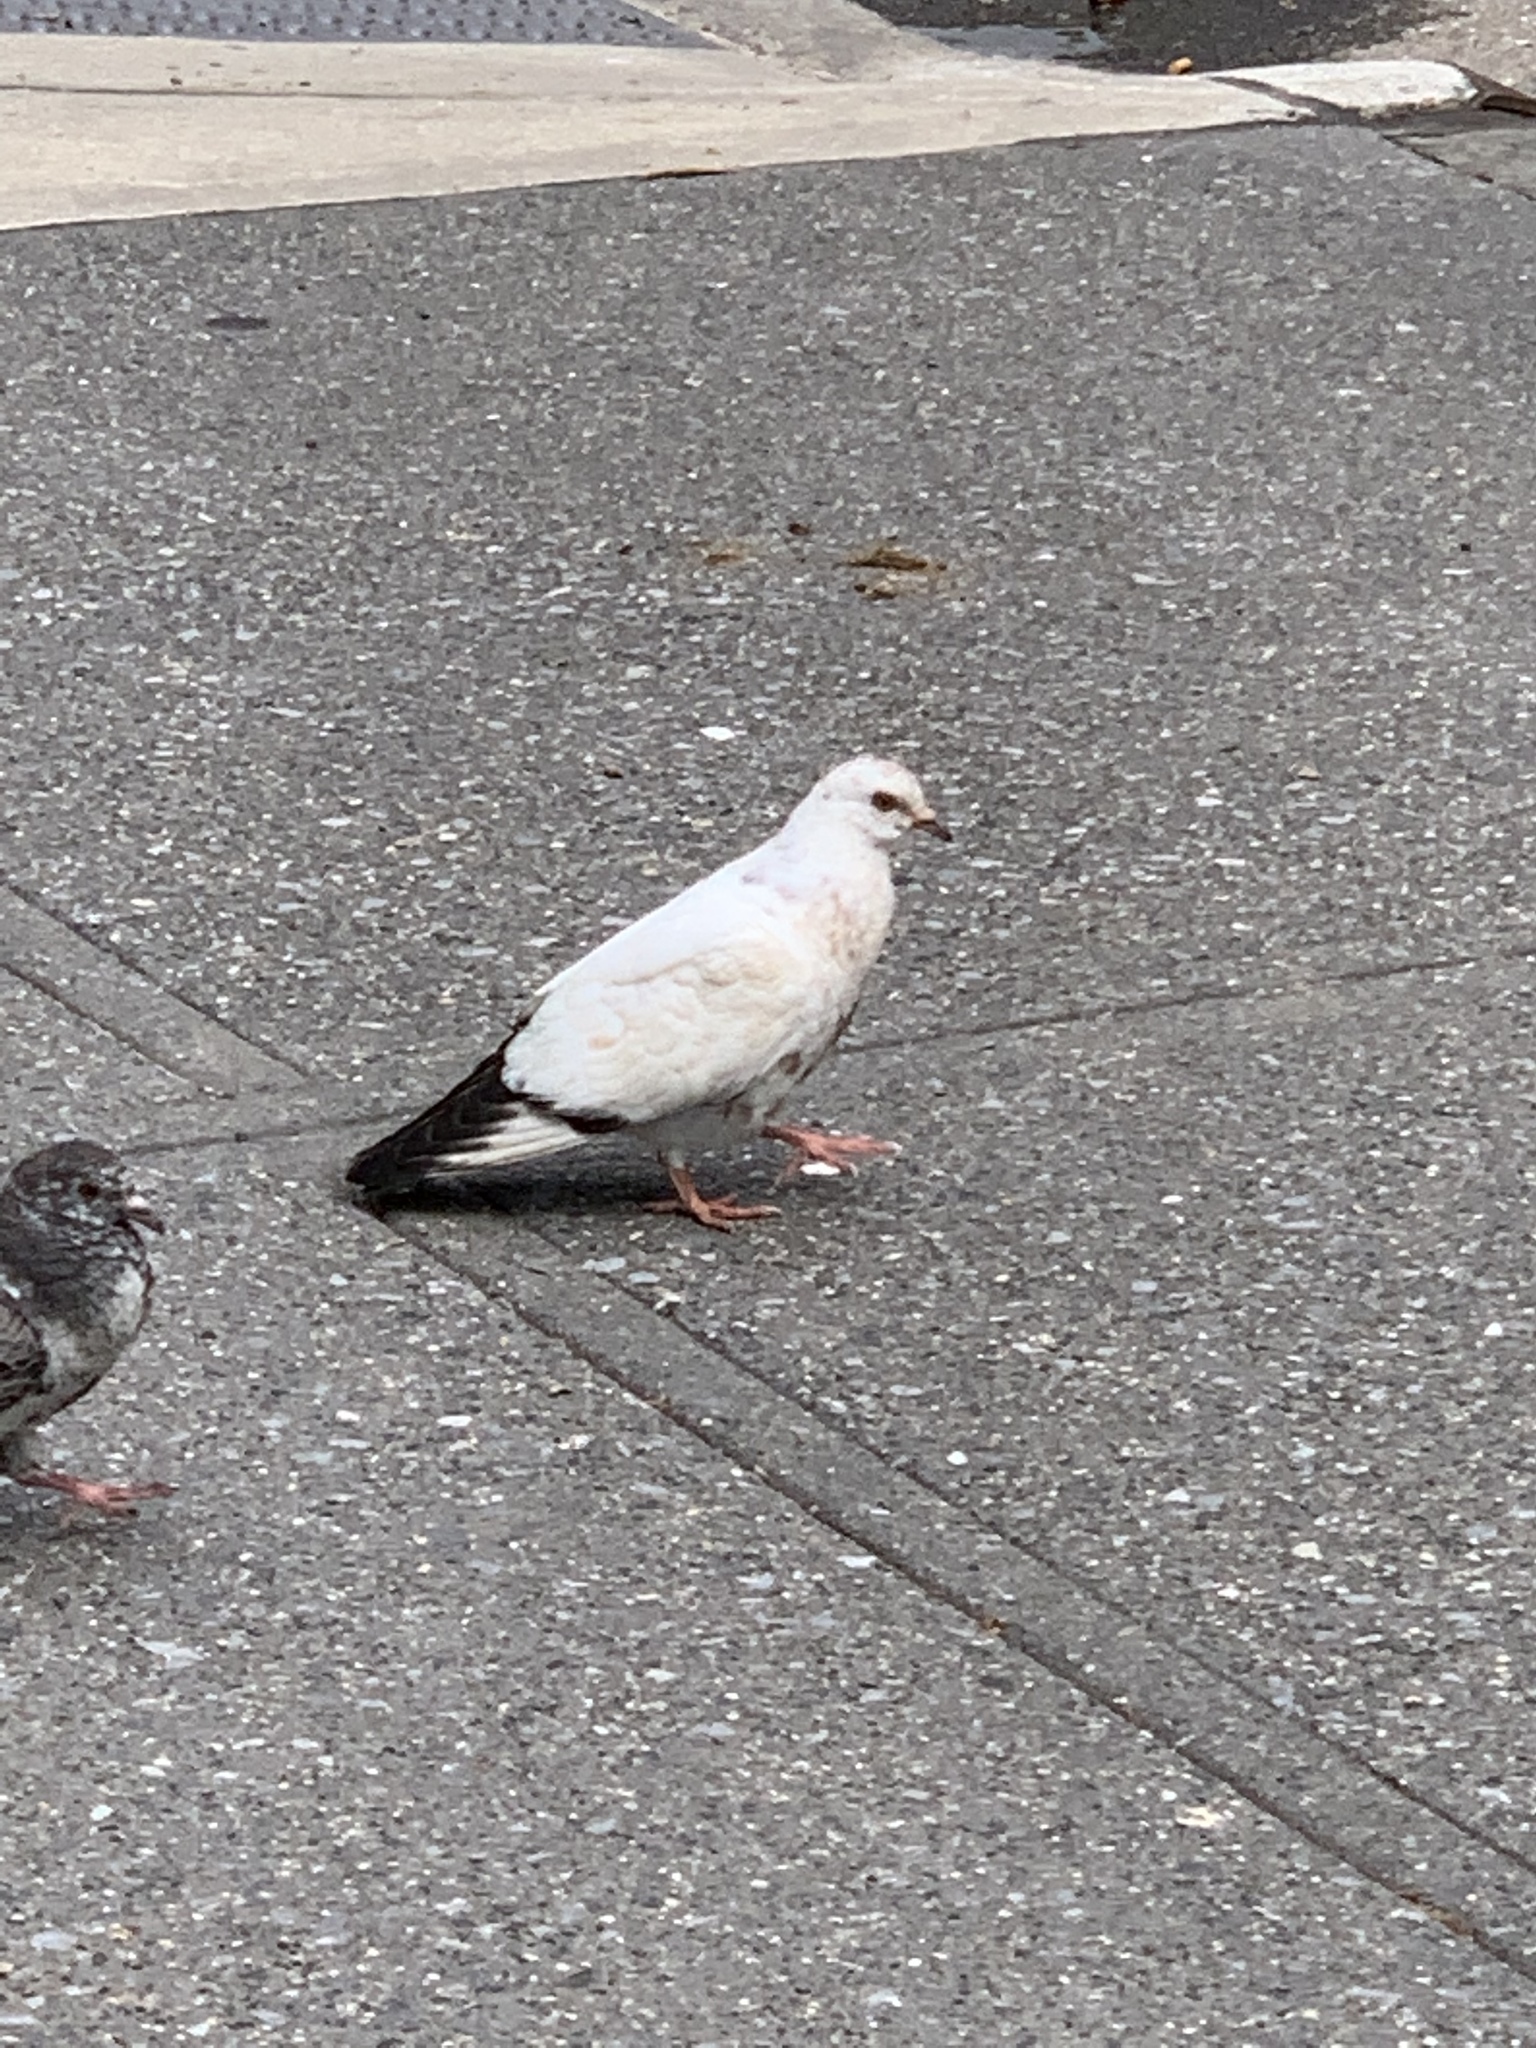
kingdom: Animalia
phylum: Chordata
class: Aves
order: Columbiformes
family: Columbidae
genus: Columba
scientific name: Columba livia
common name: Rock pigeon
